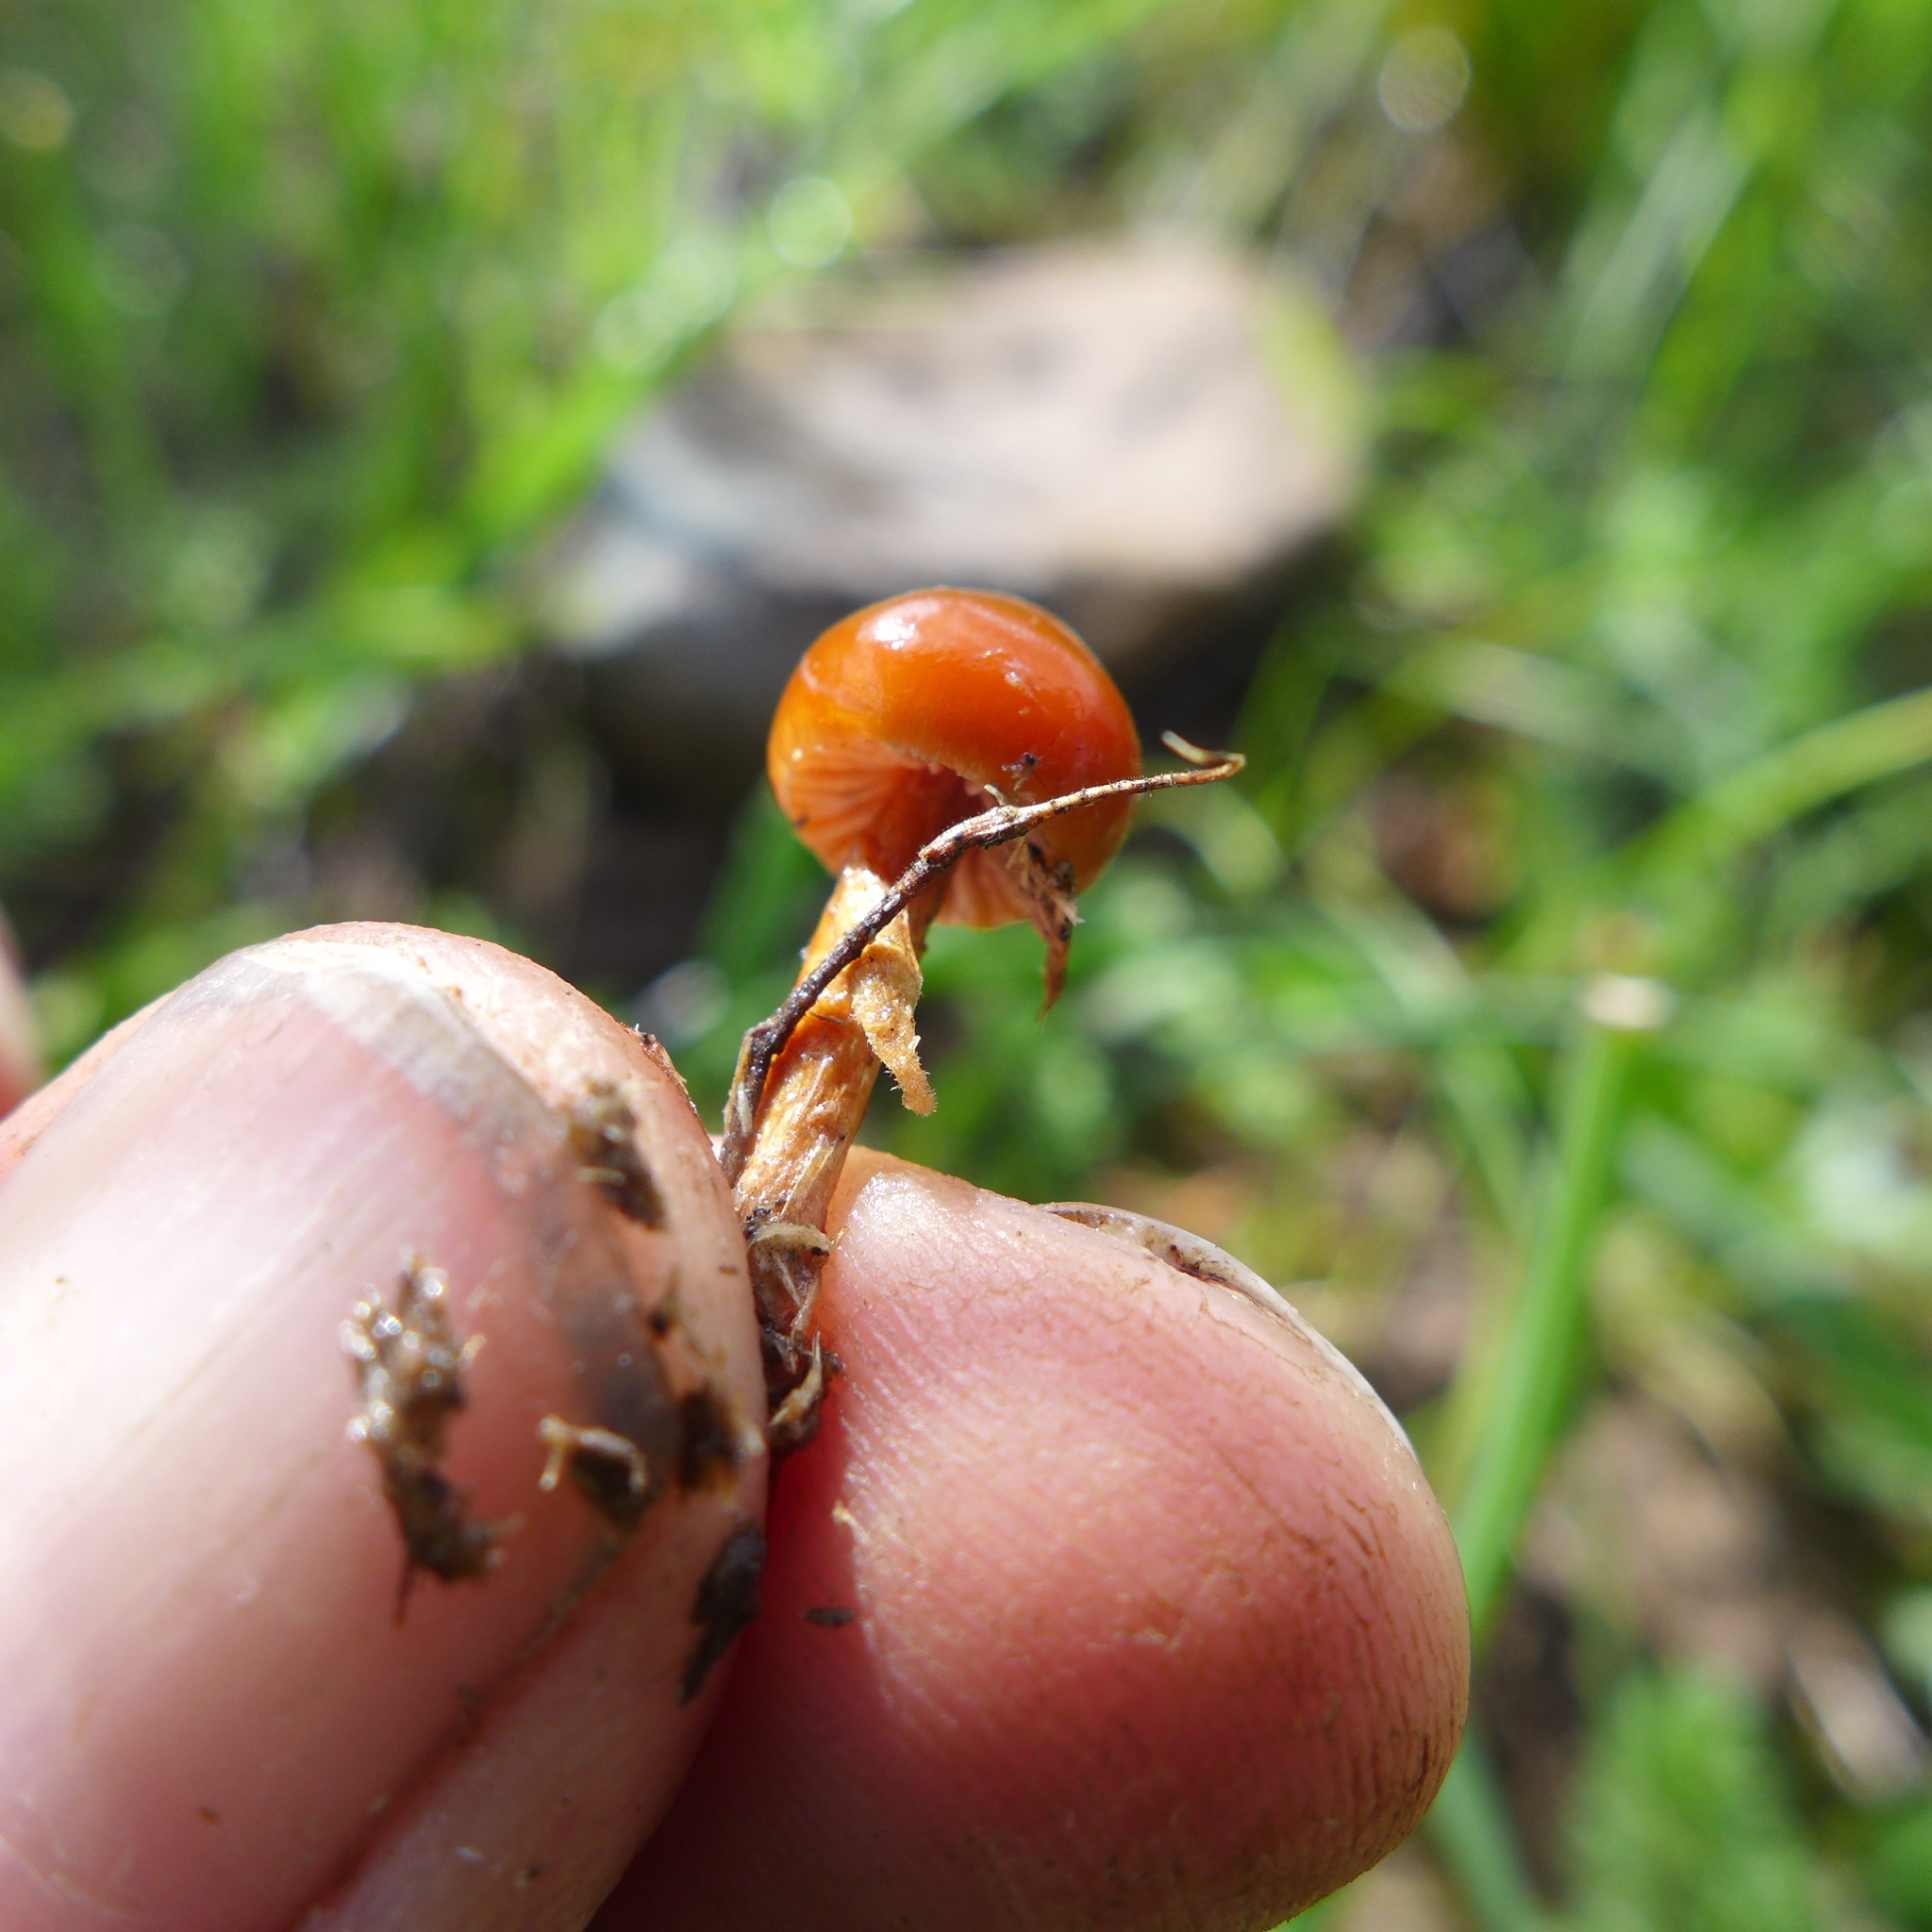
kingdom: Fungi
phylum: Basidiomycota
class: Agaricomycetes
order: Agaricales
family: Strophariaceae
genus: Deconica
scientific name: Deconica coprophila
